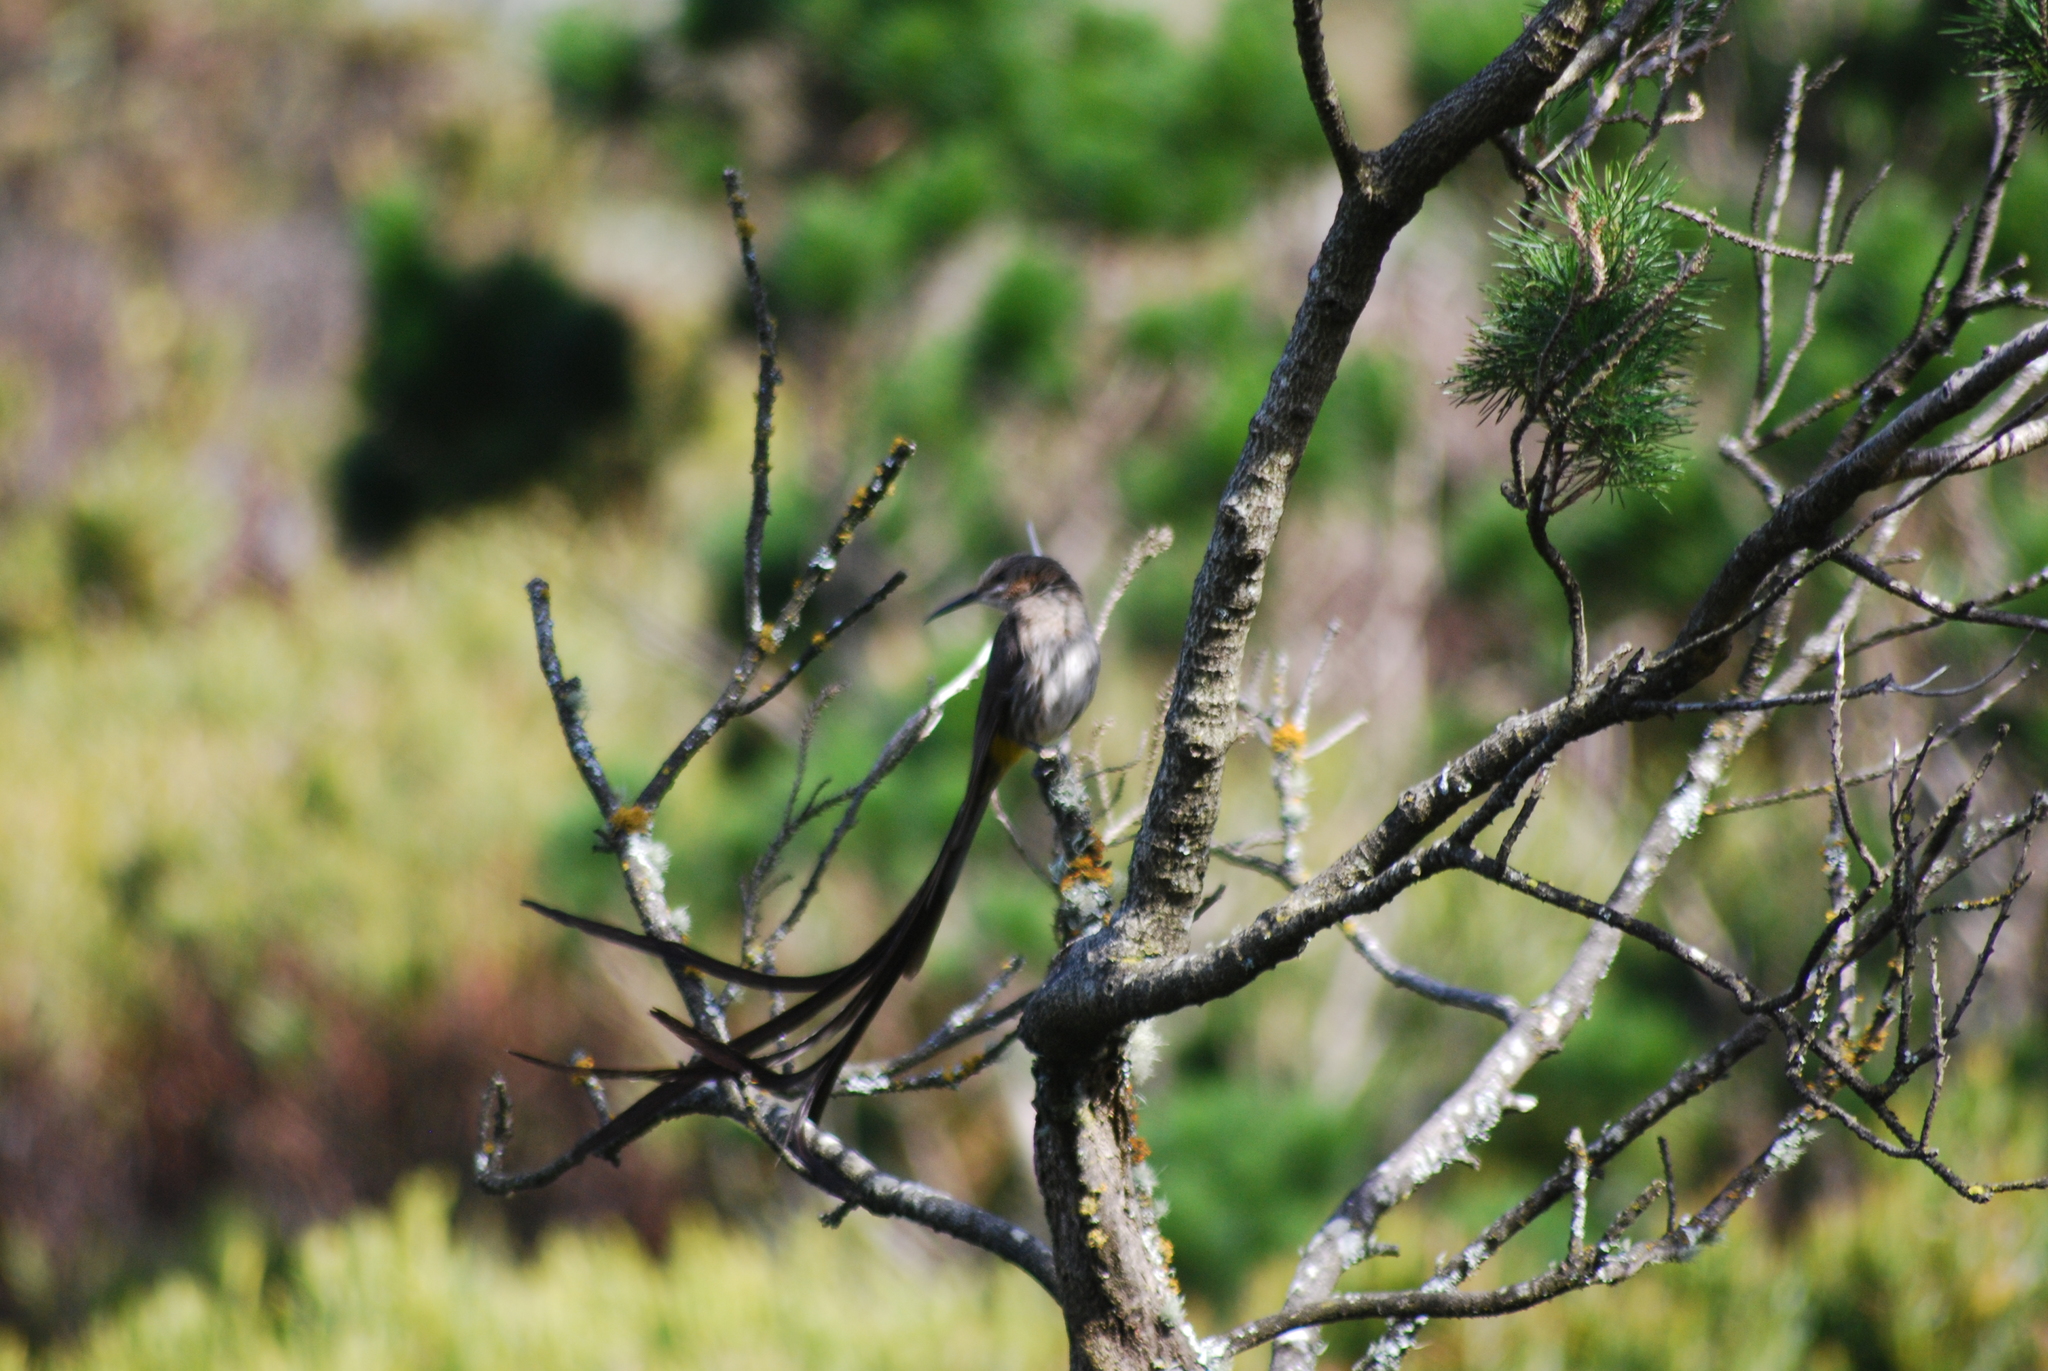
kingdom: Animalia
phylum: Chordata
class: Aves
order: Passeriformes
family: Promeropidae
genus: Promerops
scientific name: Promerops cafer
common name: Cape sugarbird
